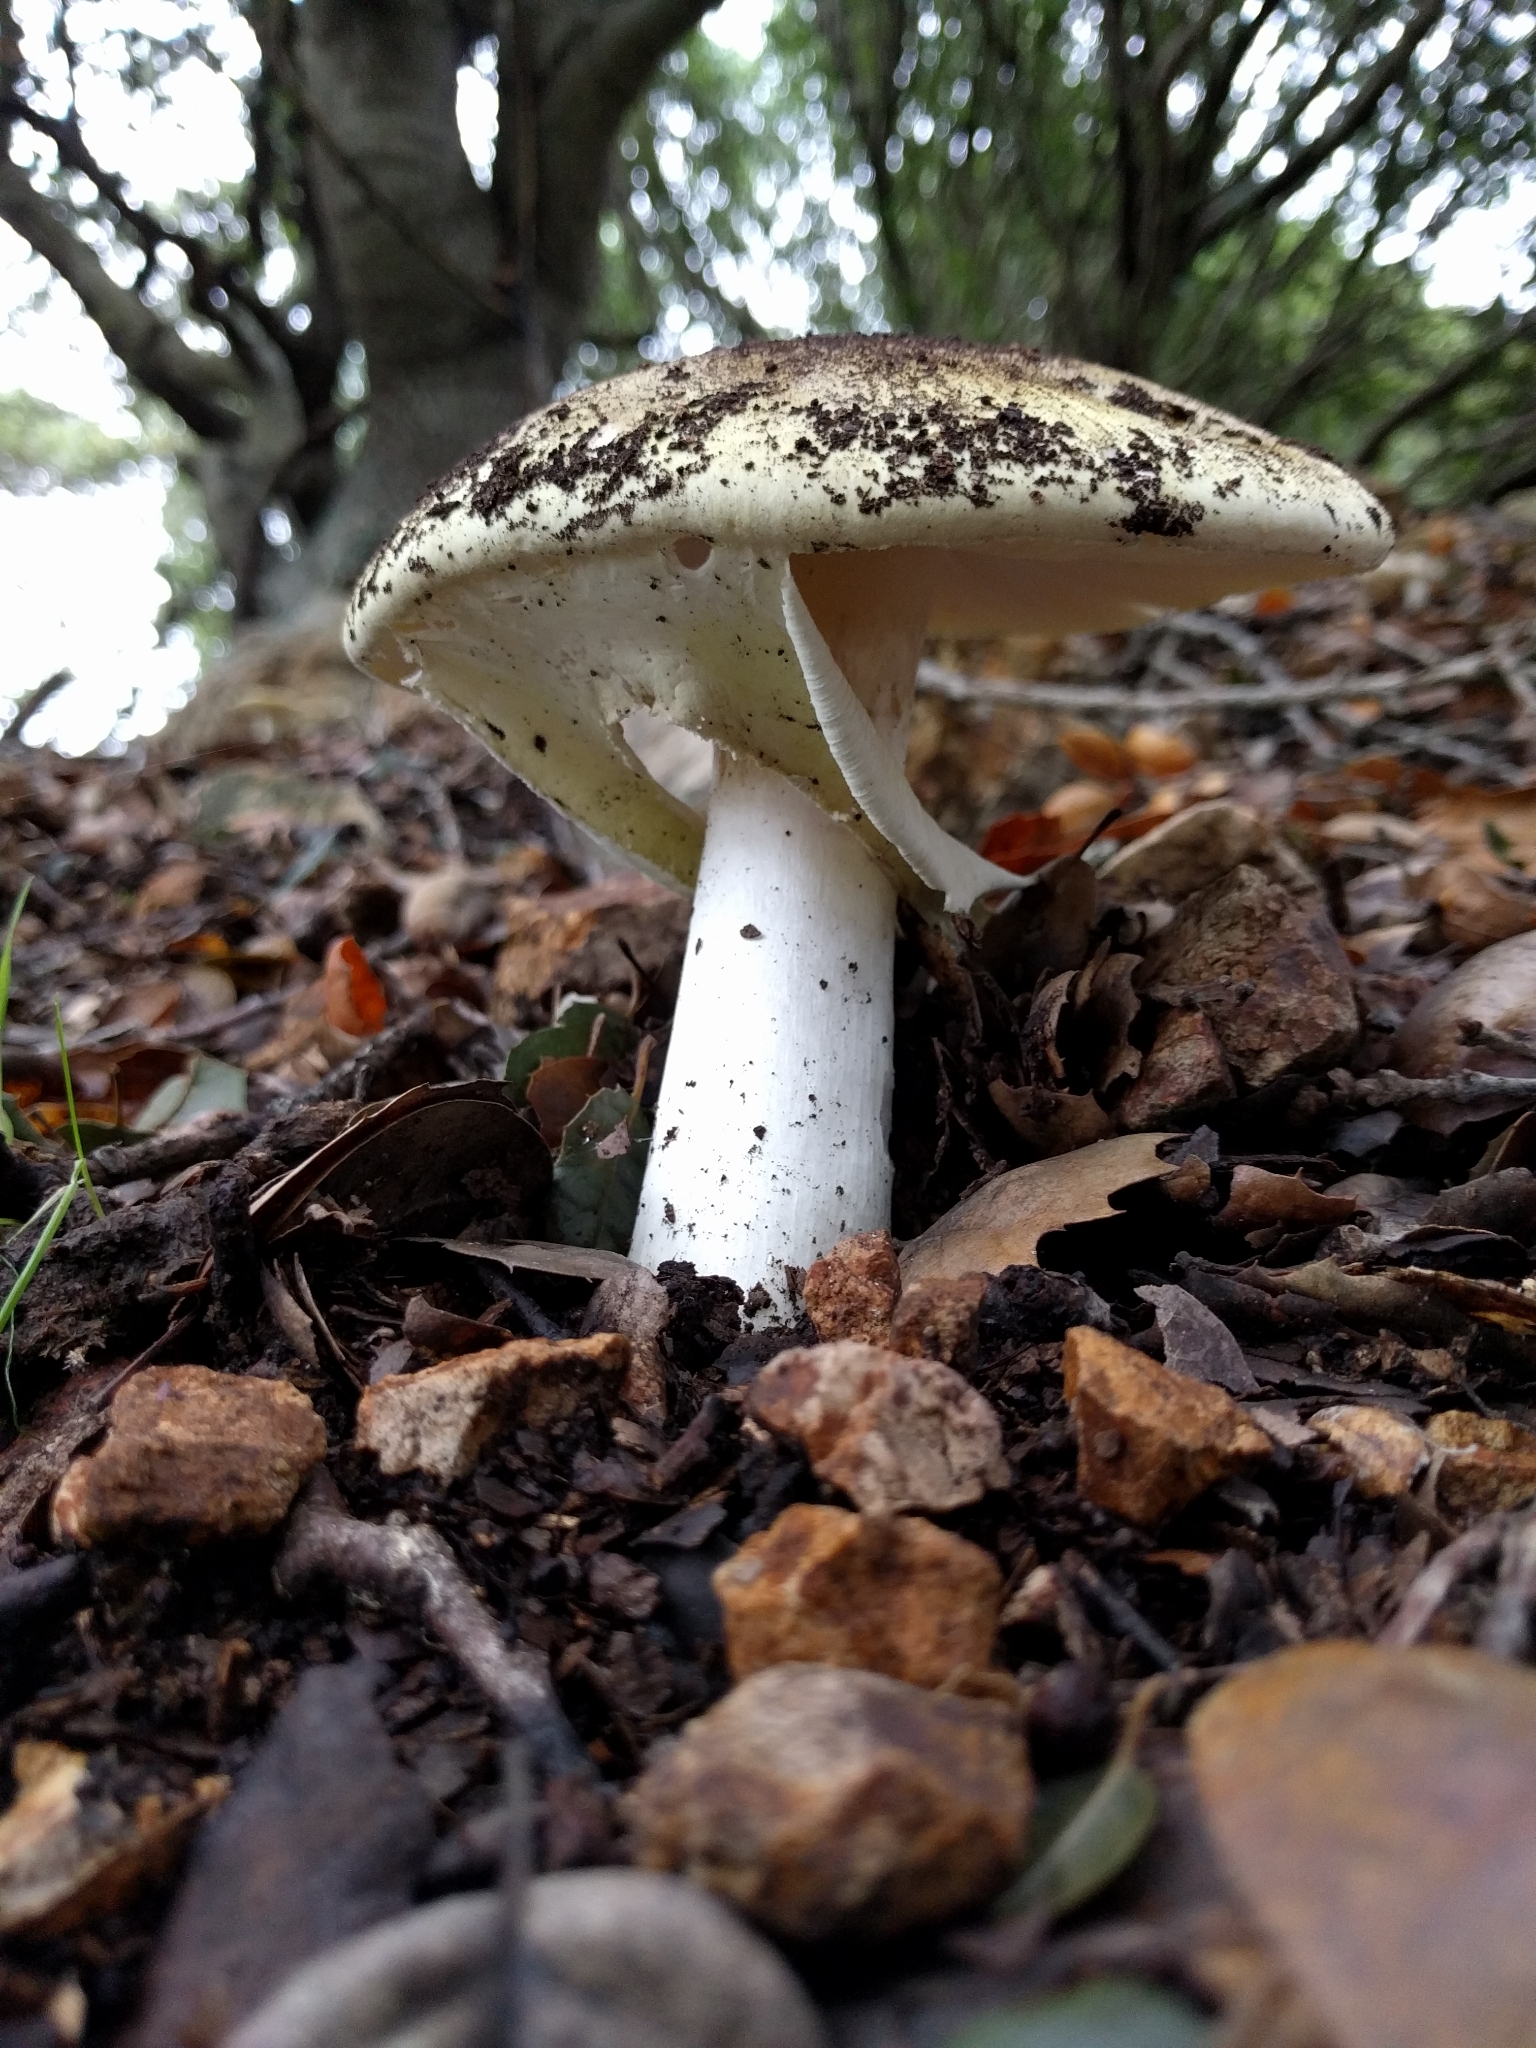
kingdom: Fungi
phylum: Basidiomycota
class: Agaricomycetes
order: Agaricales
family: Amanitaceae
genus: Amanita
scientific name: Amanita phalloides
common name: Death cap
